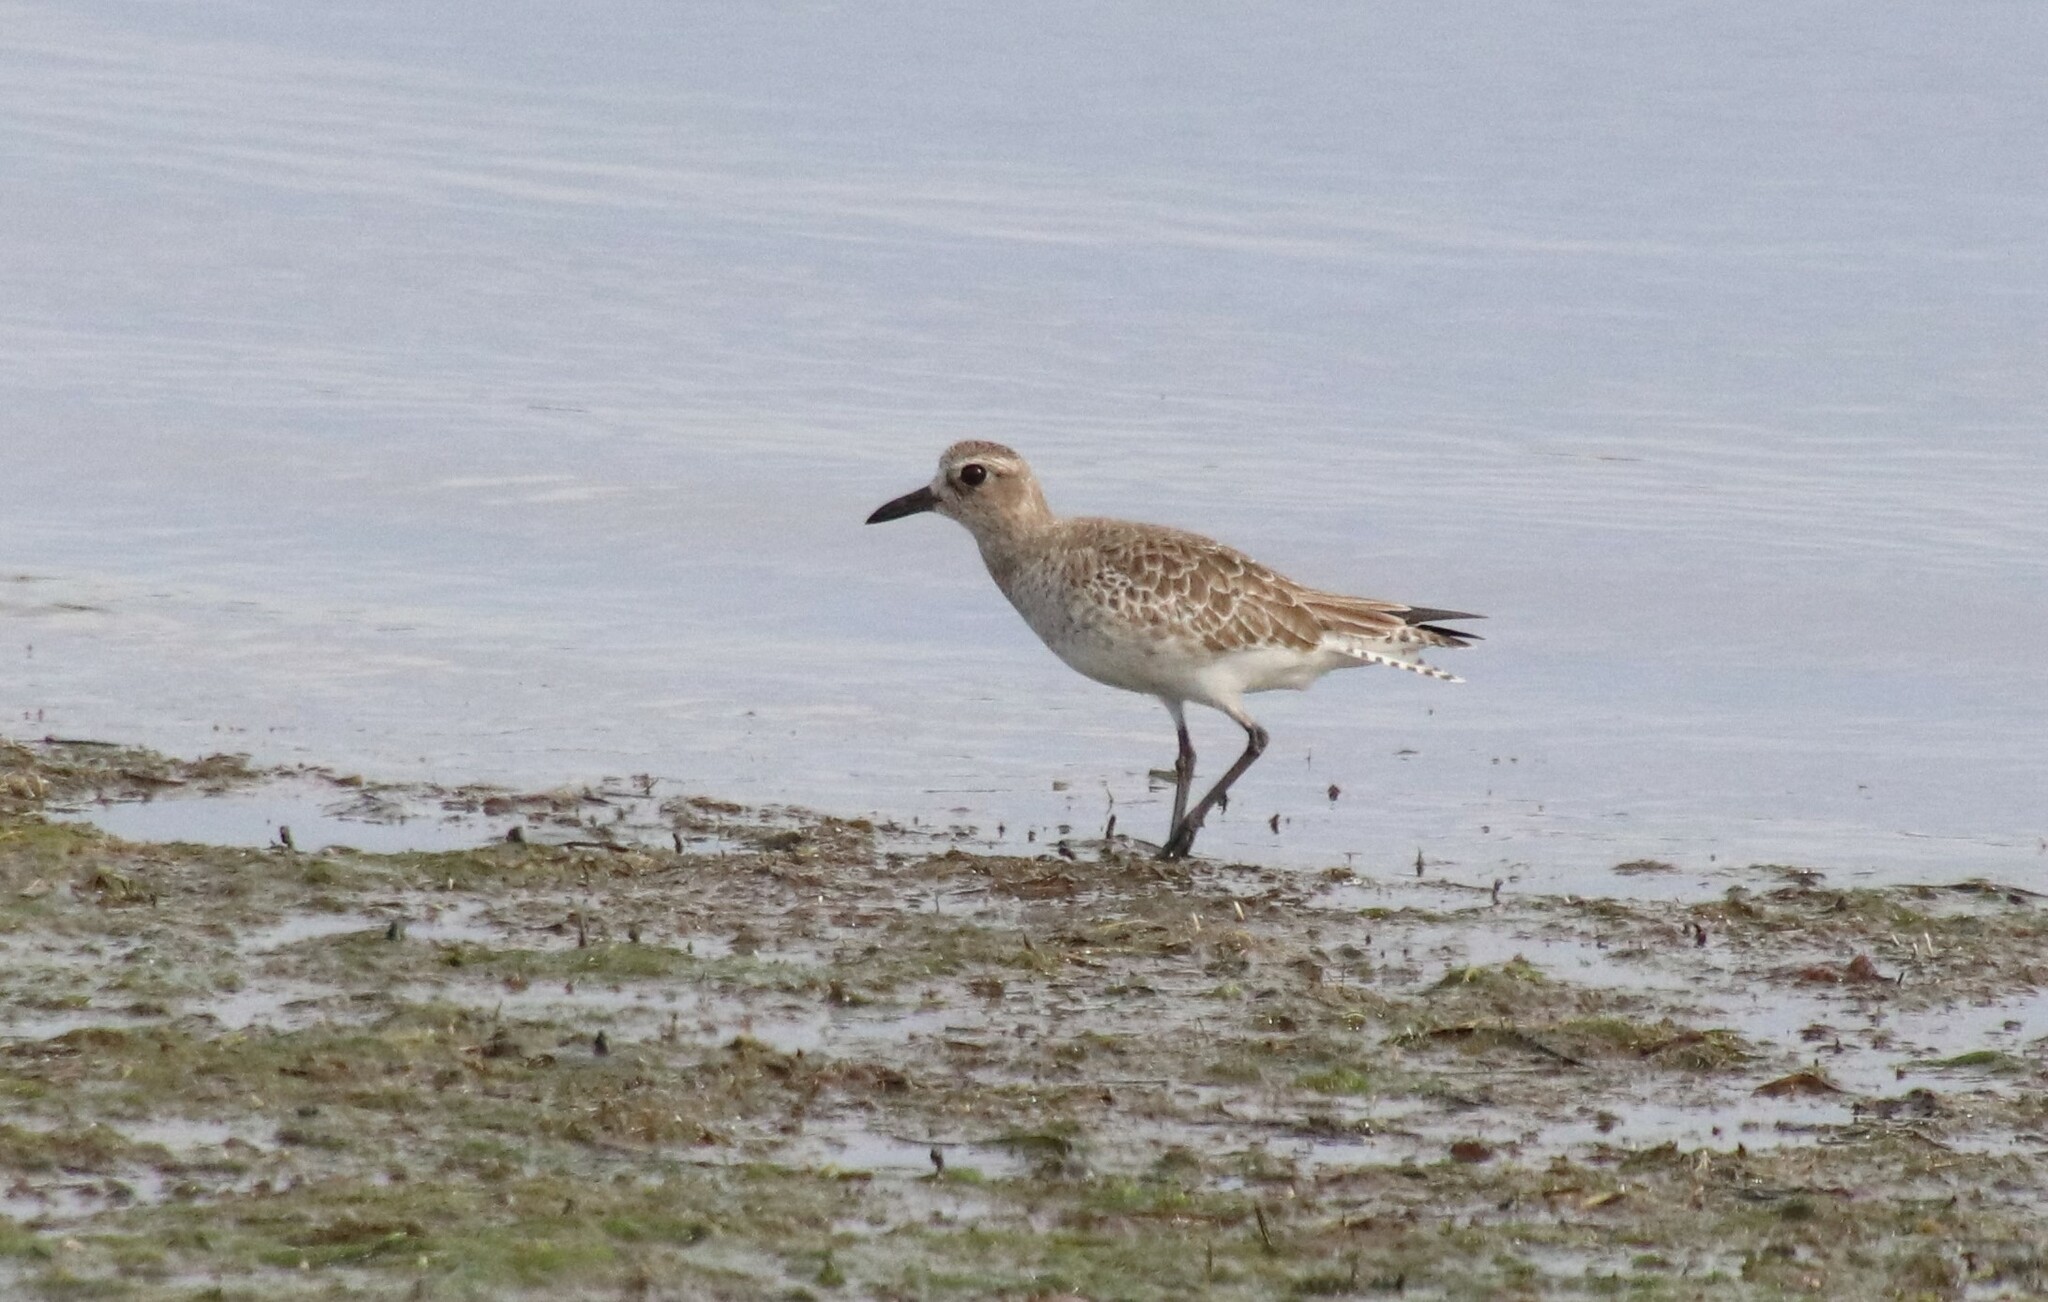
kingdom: Animalia
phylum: Chordata
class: Aves
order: Charadriiformes
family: Charadriidae
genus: Pluvialis
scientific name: Pluvialis squatarola
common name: Grey plover
